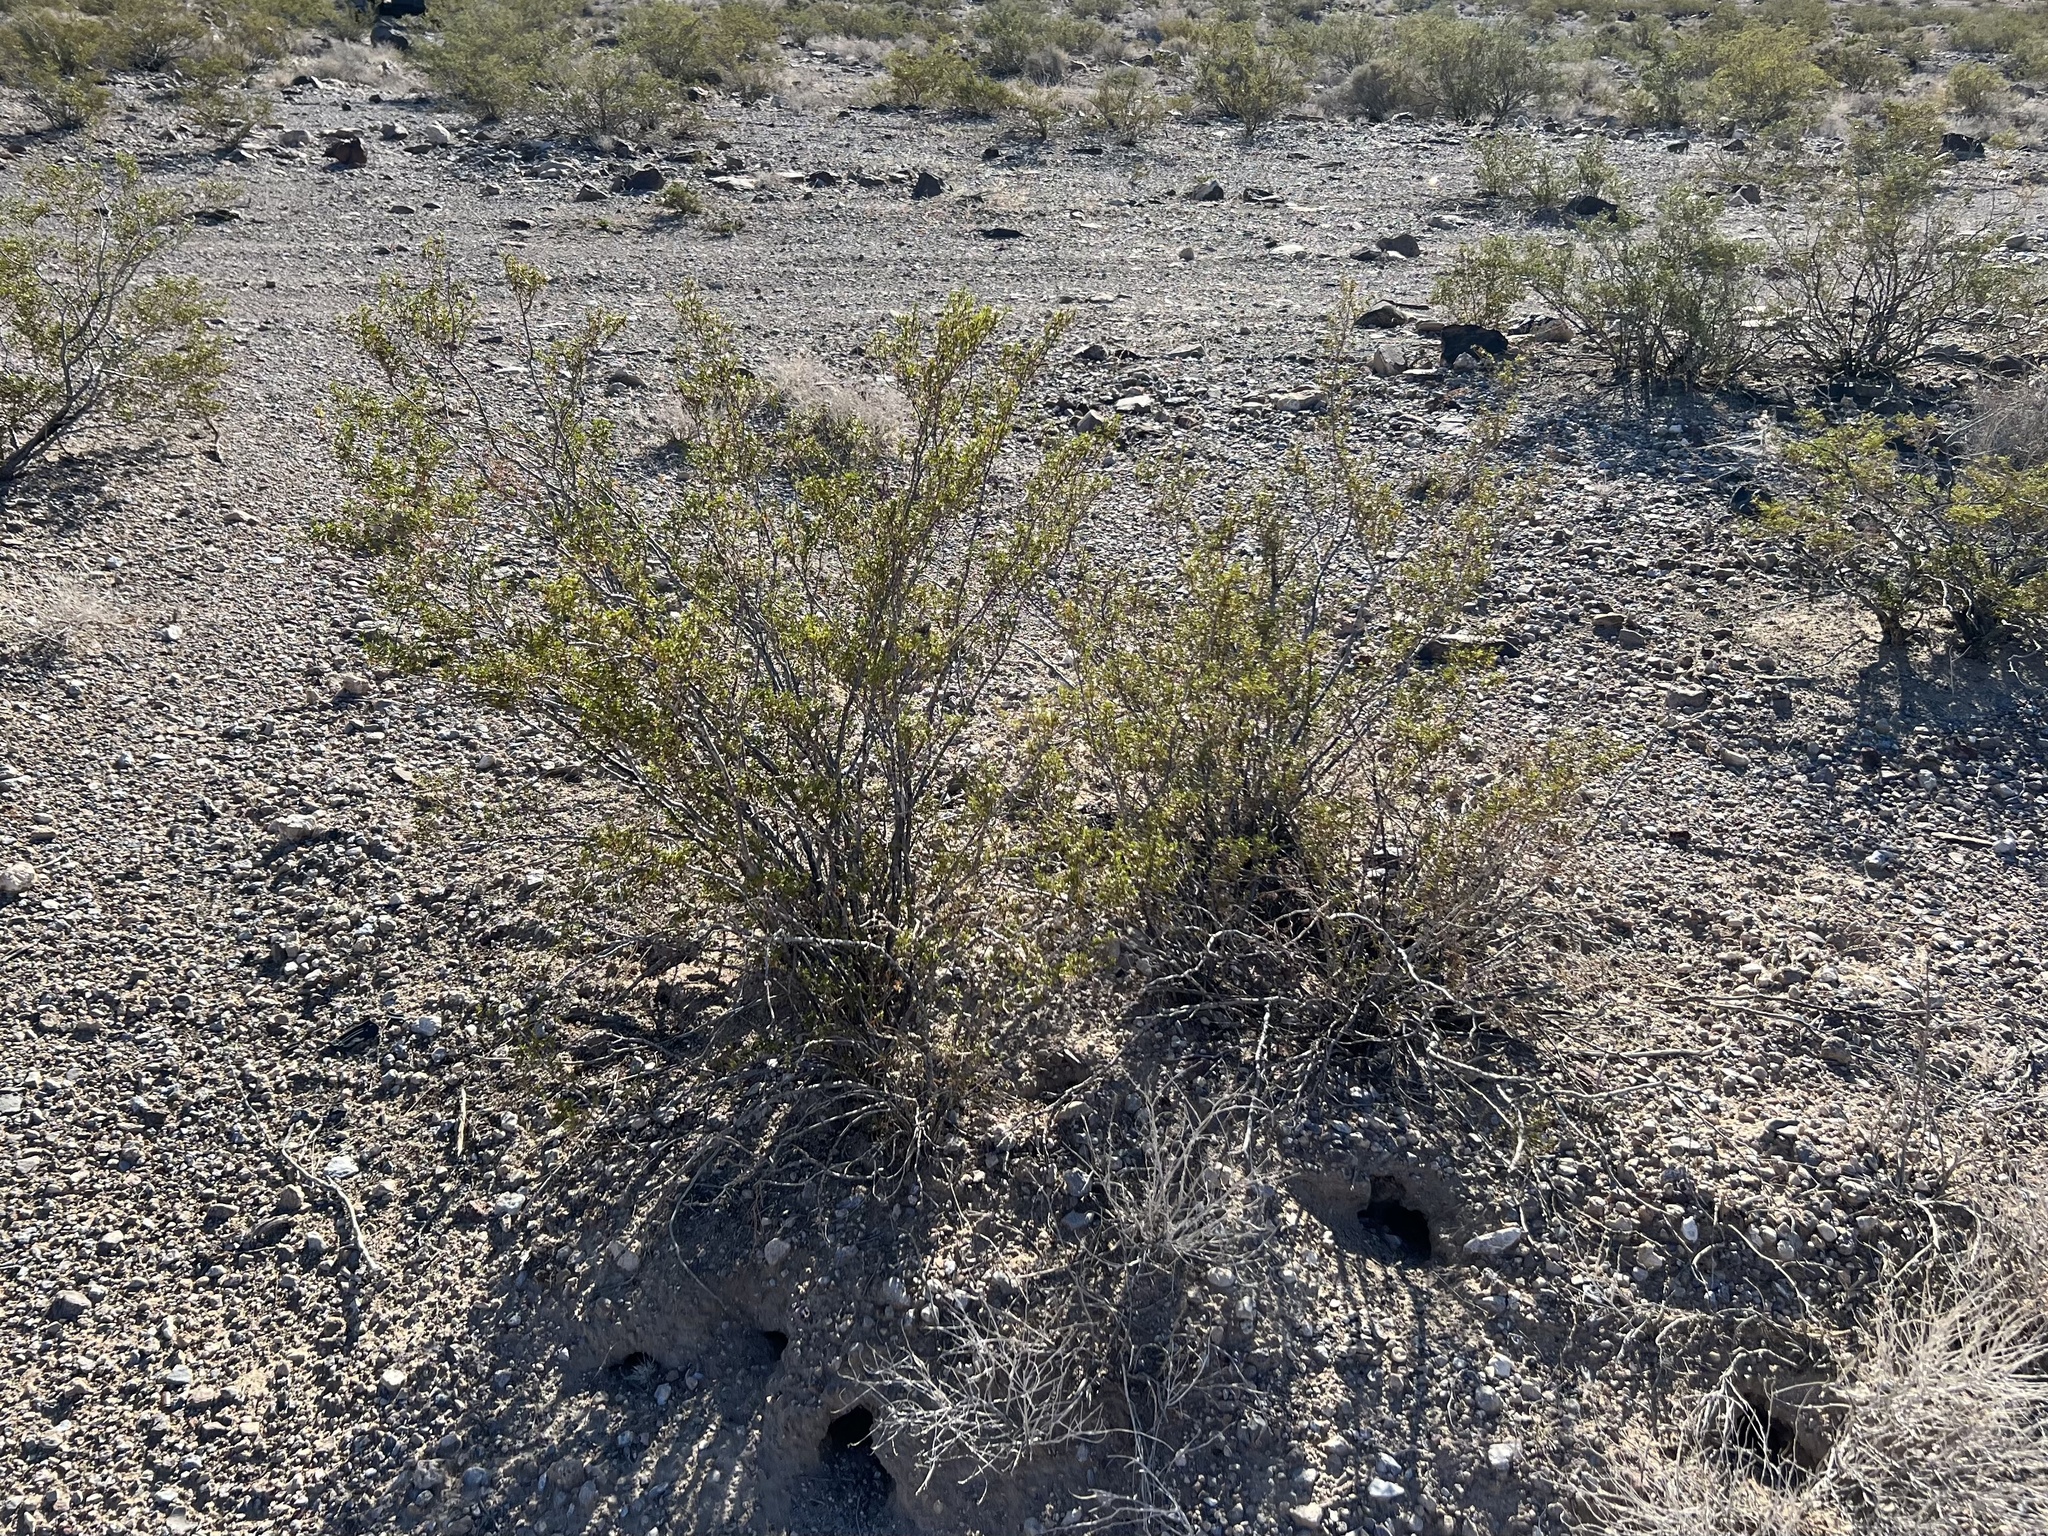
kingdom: Plantae
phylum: Tracheophyta
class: Magnoliopsida
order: Zygophyllales
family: Zygophyllaceae
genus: Larrea
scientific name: Larrea tridentata
